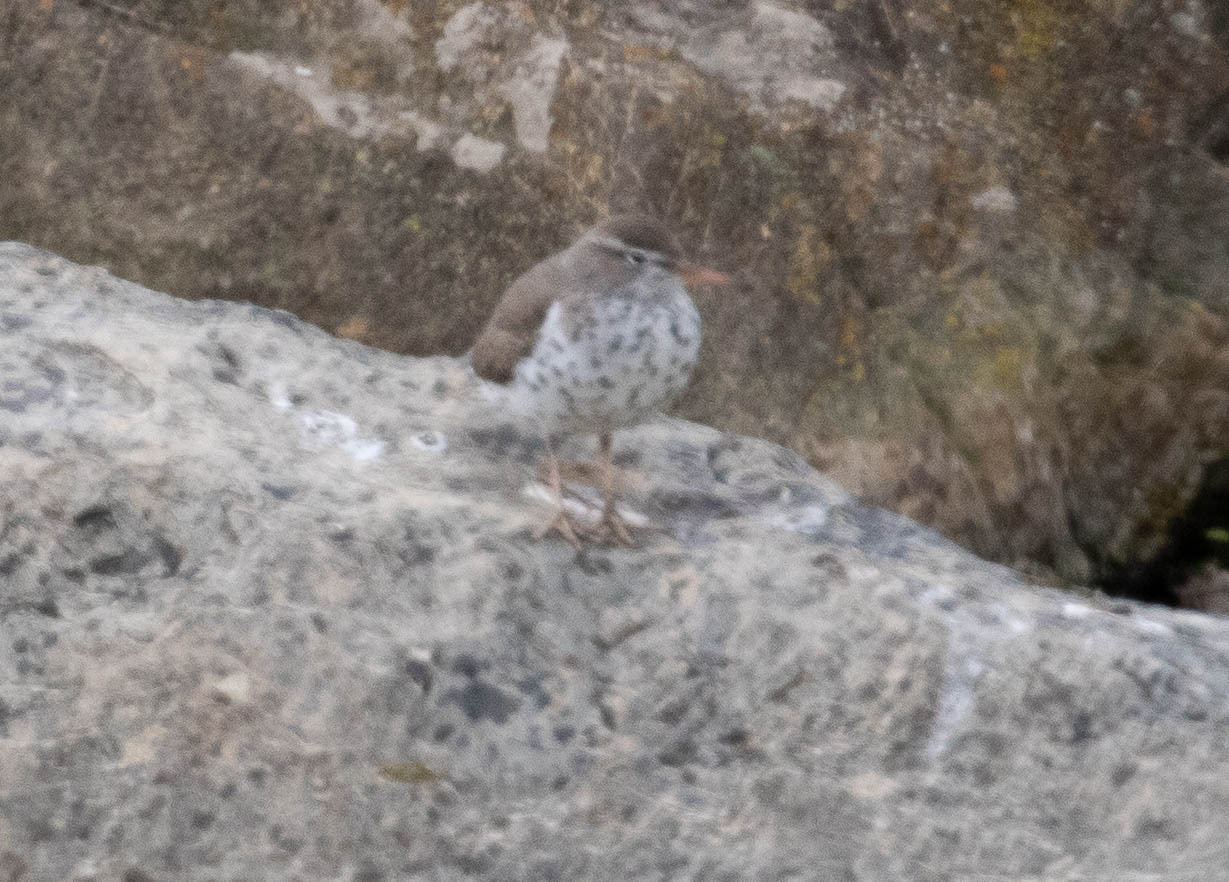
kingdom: Animalia
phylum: Chordata
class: Aves
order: Charadriiformes
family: Scolopacidae
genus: Actitis
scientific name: Actitis macularius
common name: Spotted sandpiper
